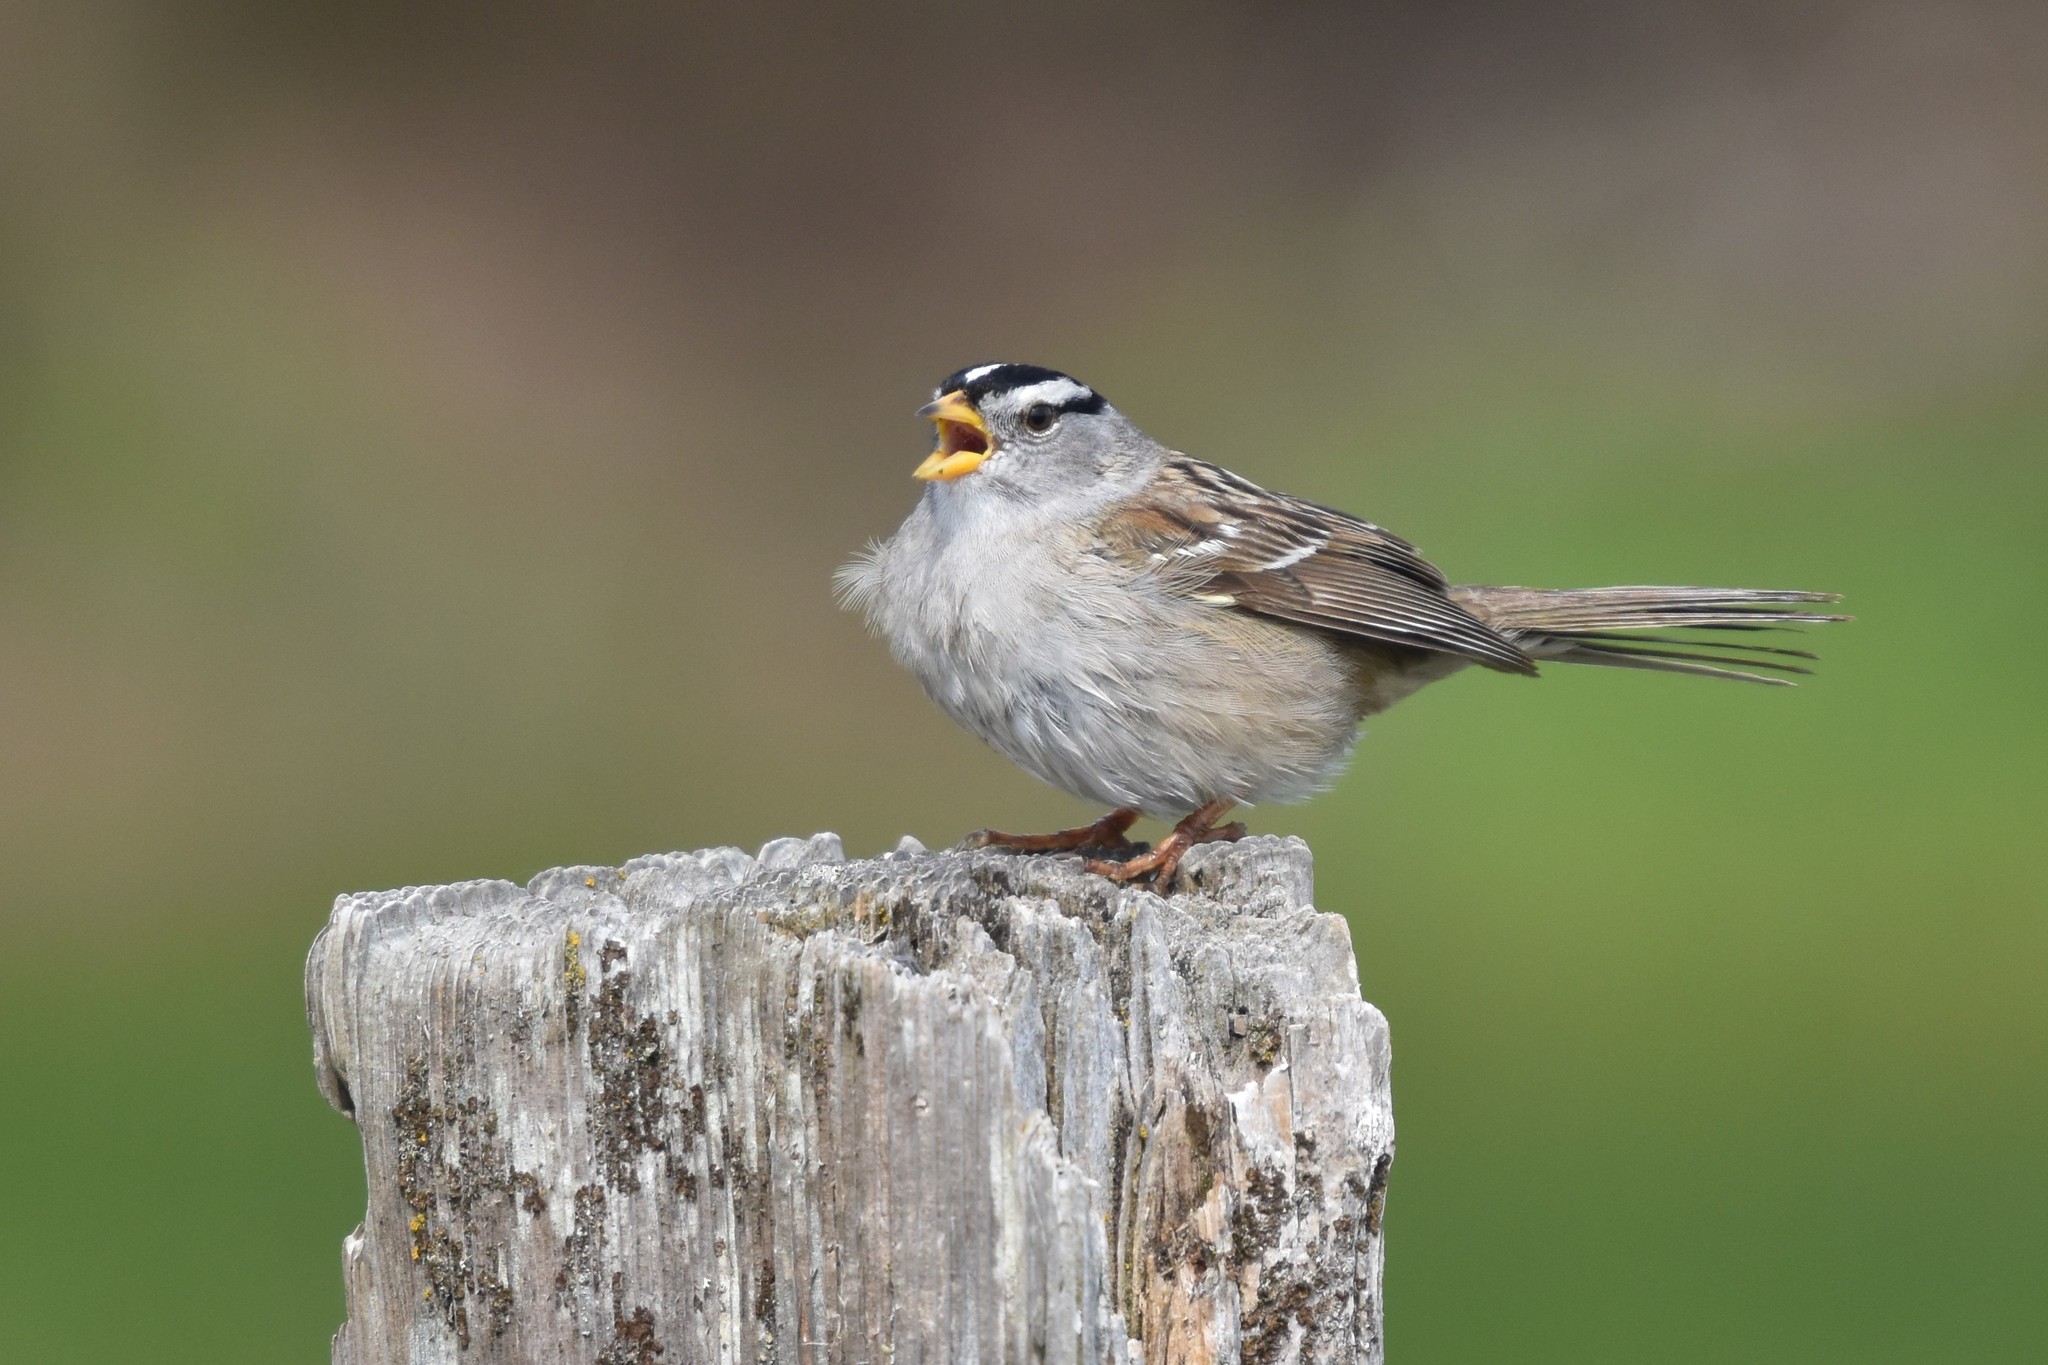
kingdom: Animalia
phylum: Chordata
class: Aves
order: Passeriformes
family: Passerellidae
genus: Zonotrichia
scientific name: Zonotrichia leucophrys
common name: White-crowned sparrow
